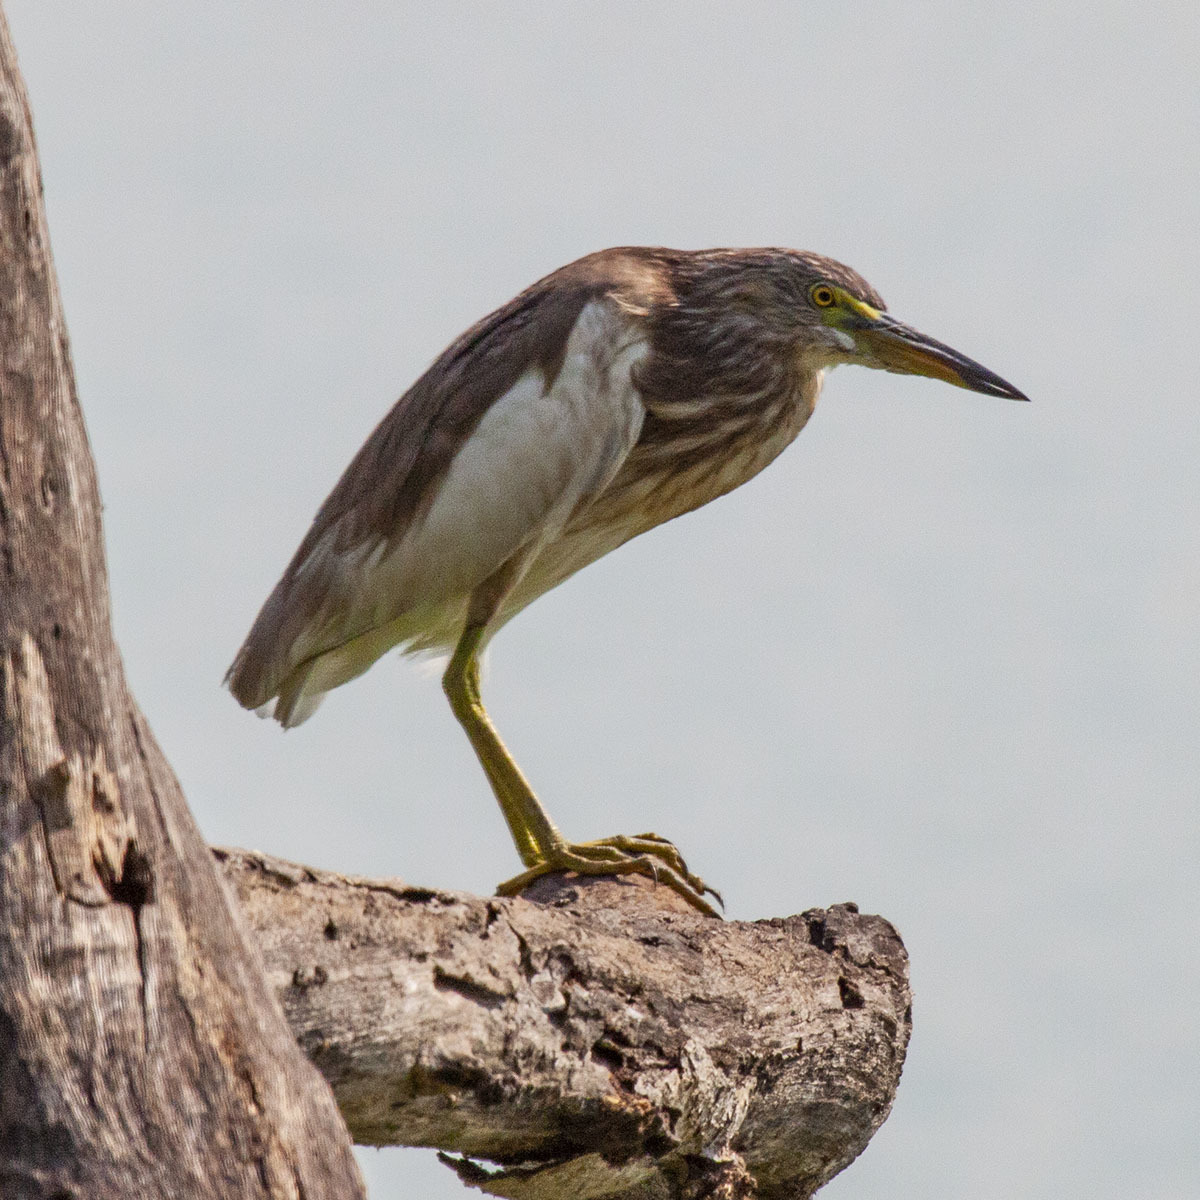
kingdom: Animalia
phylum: Chordata
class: Aves
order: Pelecaniformes
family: Ardeidae
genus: Ardeola
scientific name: Ardeola grayii
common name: Indian pond heron
